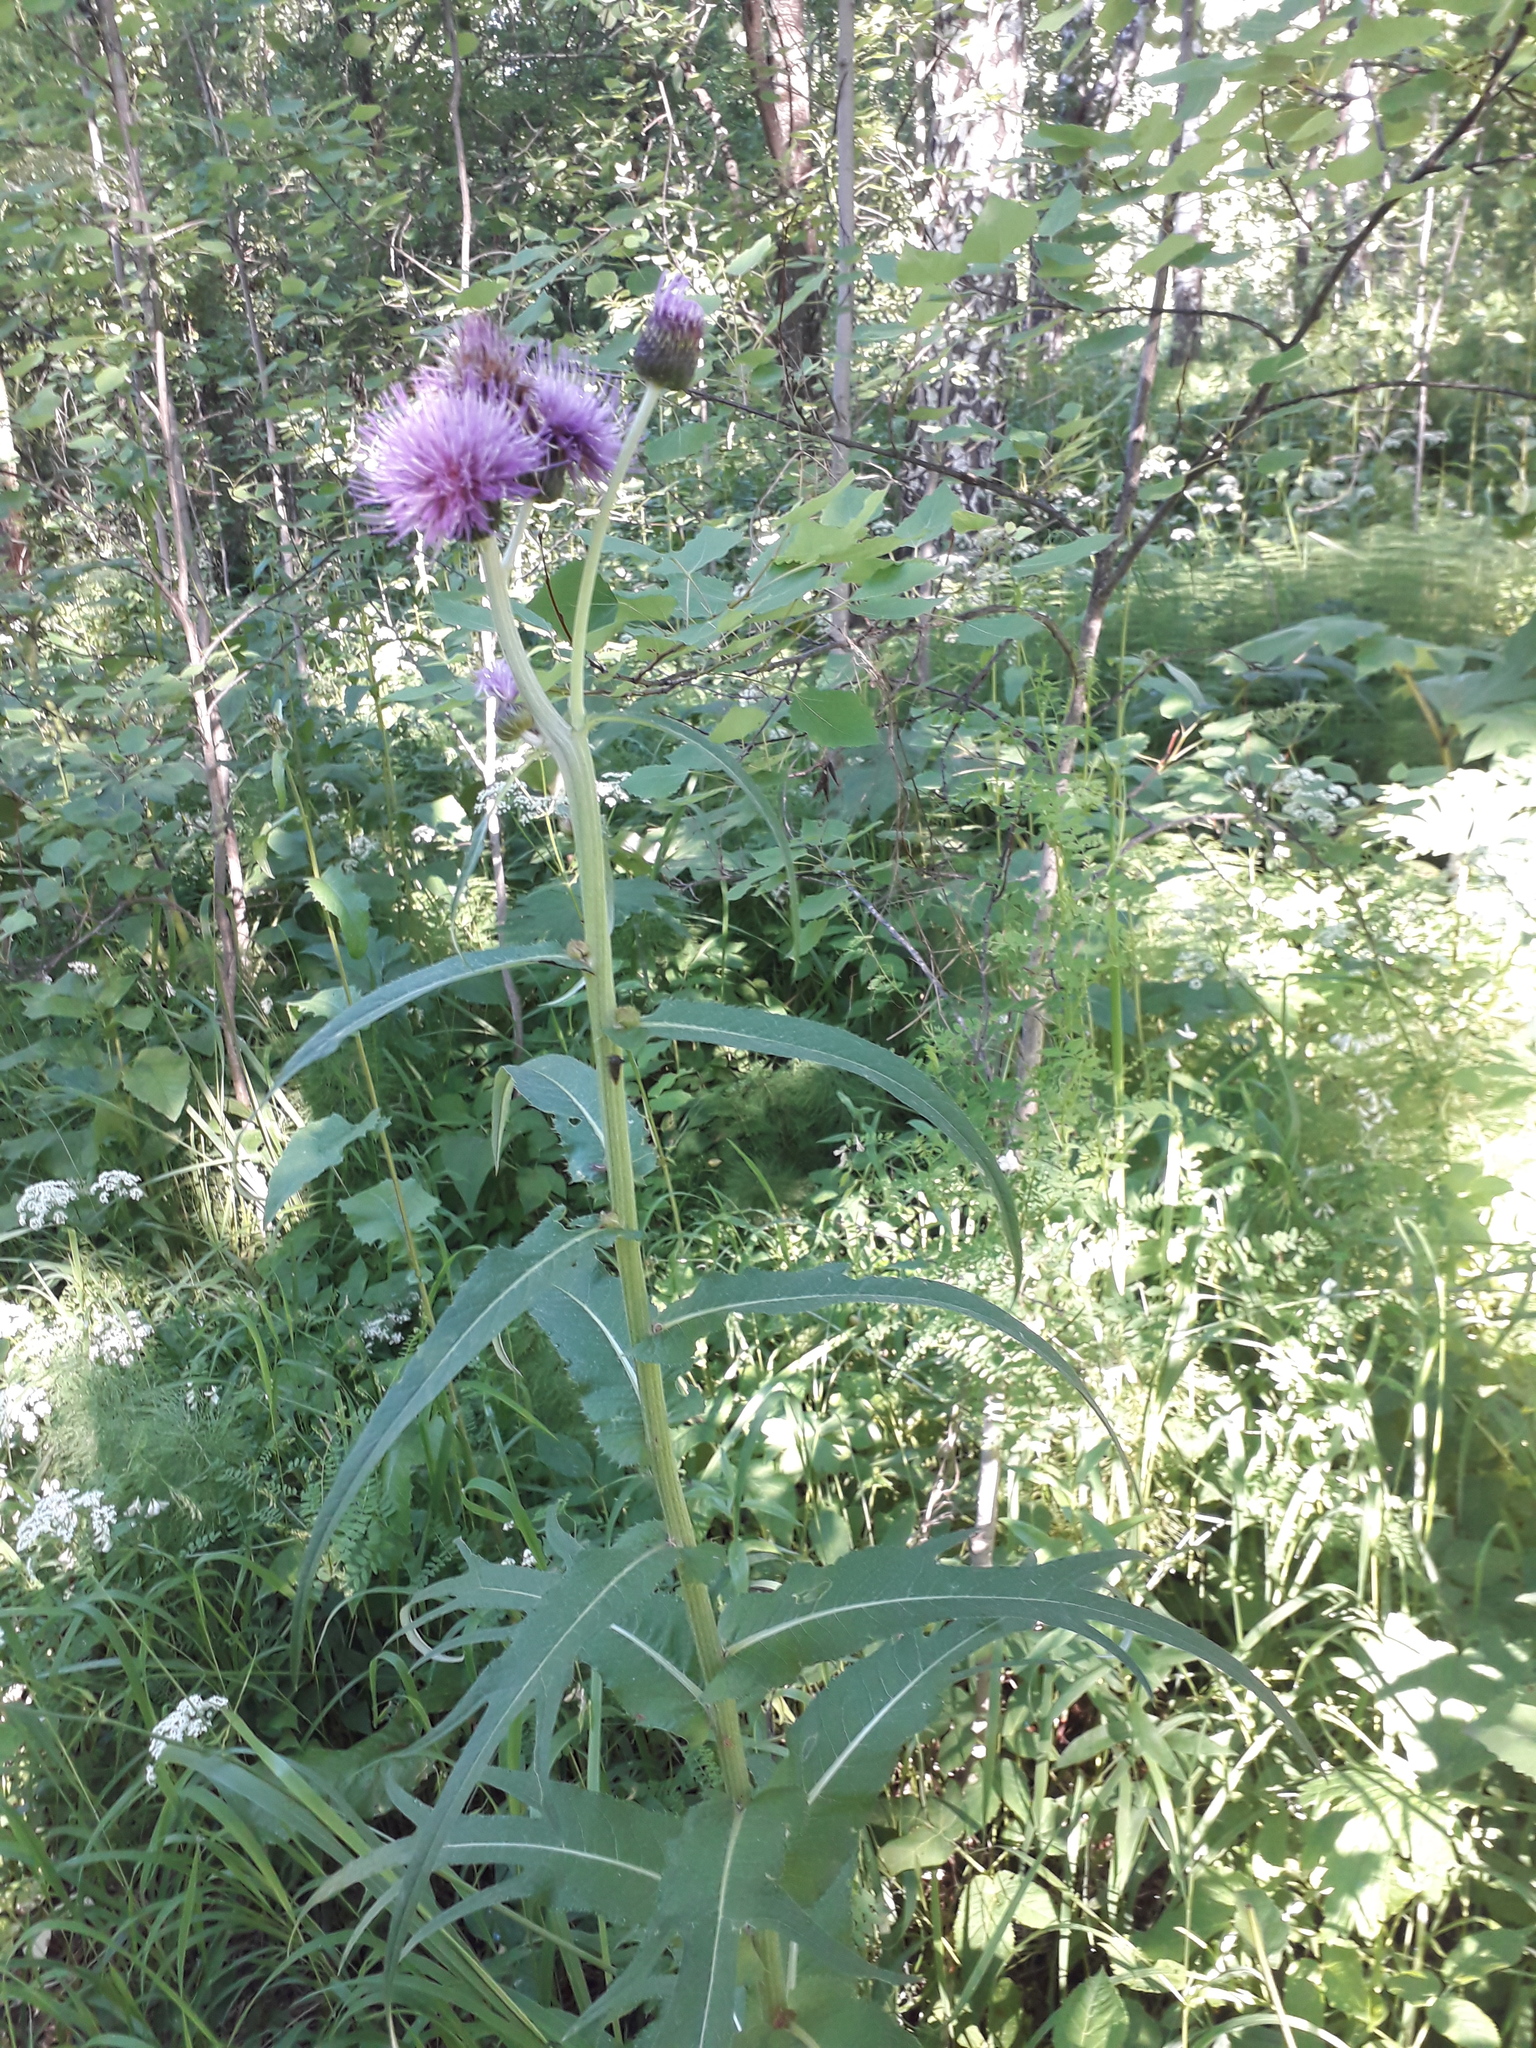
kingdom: Plantae
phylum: Tracheophyta
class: Magnoliopsida
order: Asterales
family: Asteraceae
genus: Cirsium
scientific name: Cirsium heterophyllum
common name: Melancholy thistle
